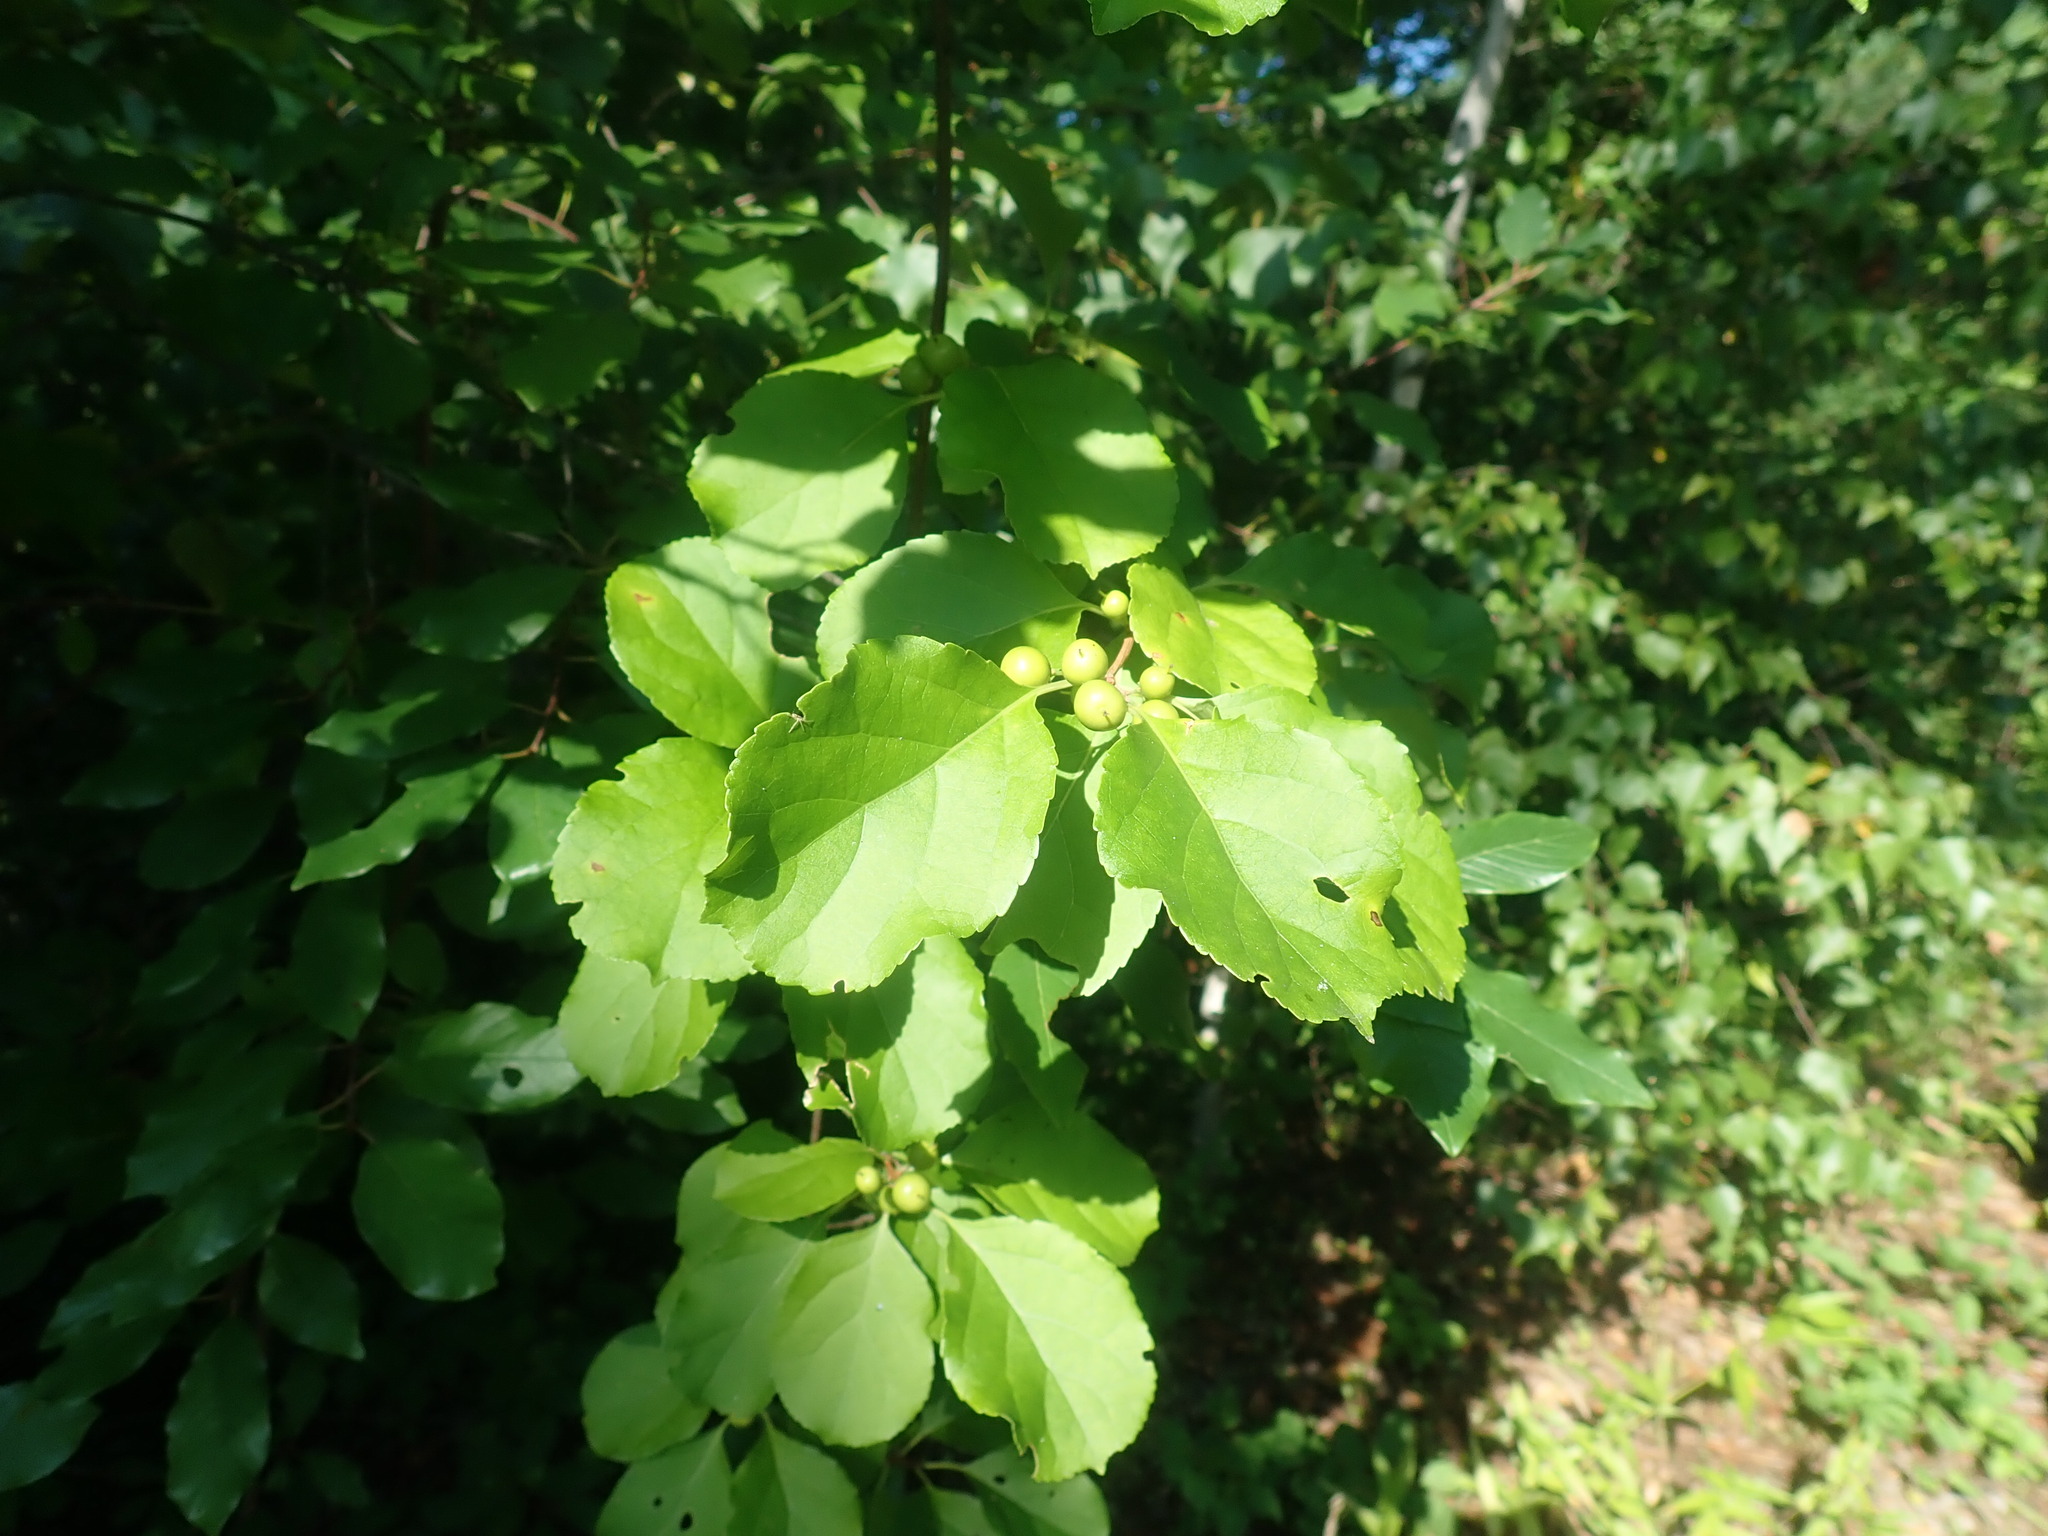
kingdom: Plantae
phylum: Tracheophyta
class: Magnoliopsida
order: Celastrales
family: Celastraceae
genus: Celastrus
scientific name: Celastrus orbiculatus
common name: Oriental bittersweet
